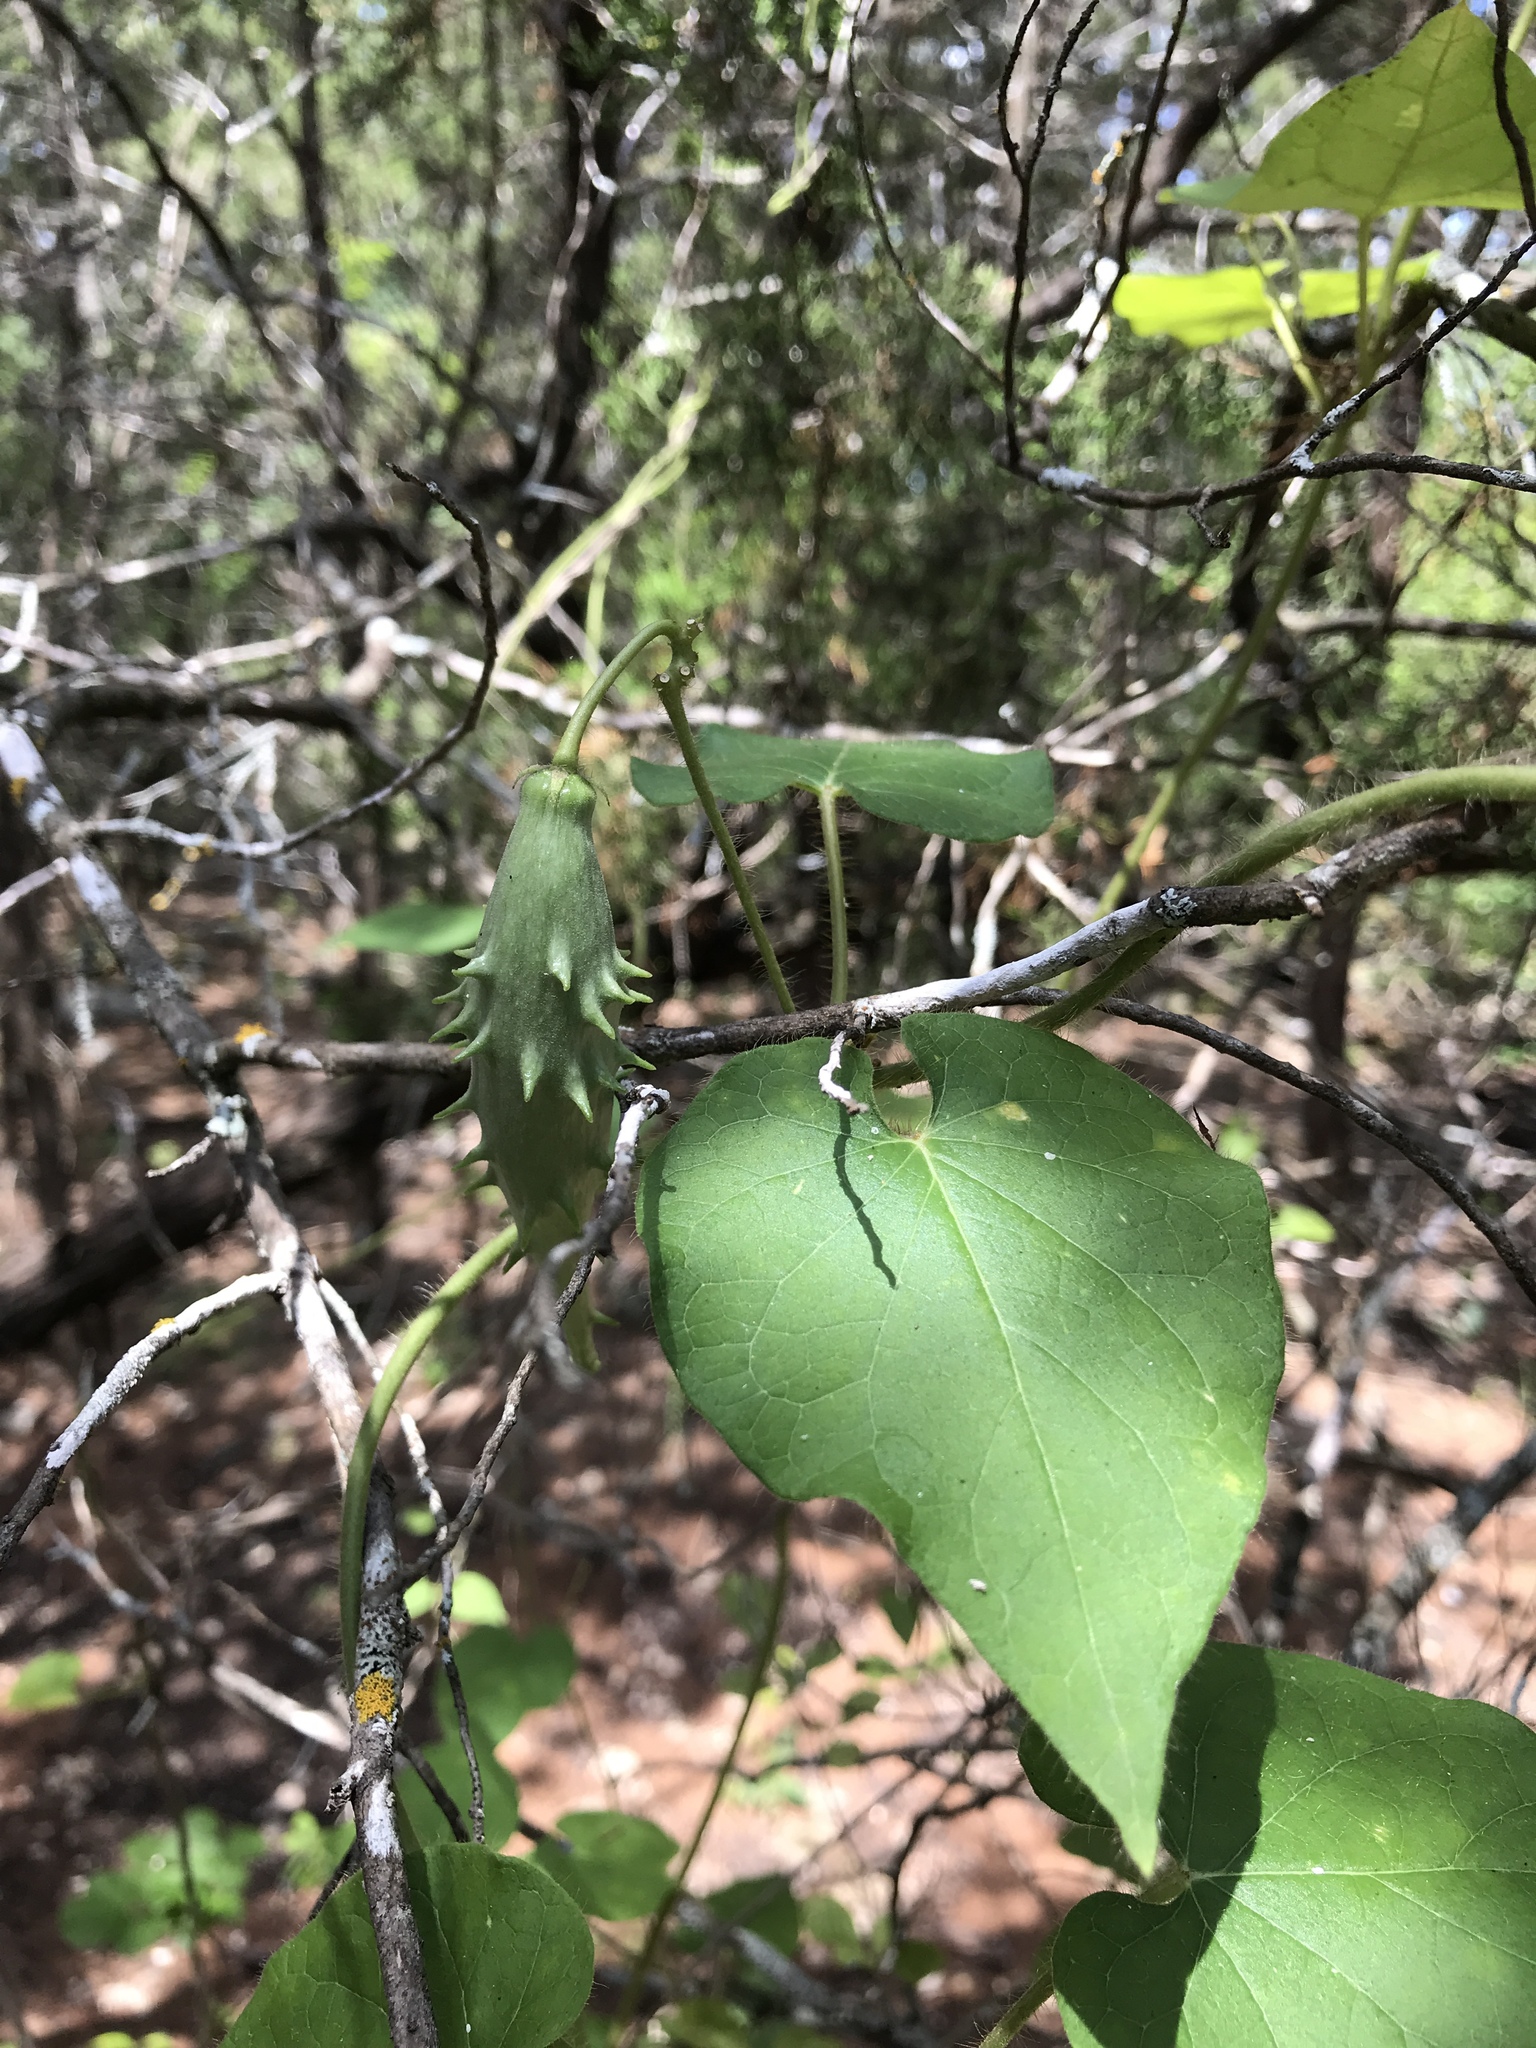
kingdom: Plantae
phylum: Tracheophyta
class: Magnoliopsida
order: Gentianales
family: Apocynaceae
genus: Dictyanthus
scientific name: Dictyanthus reticulatus
